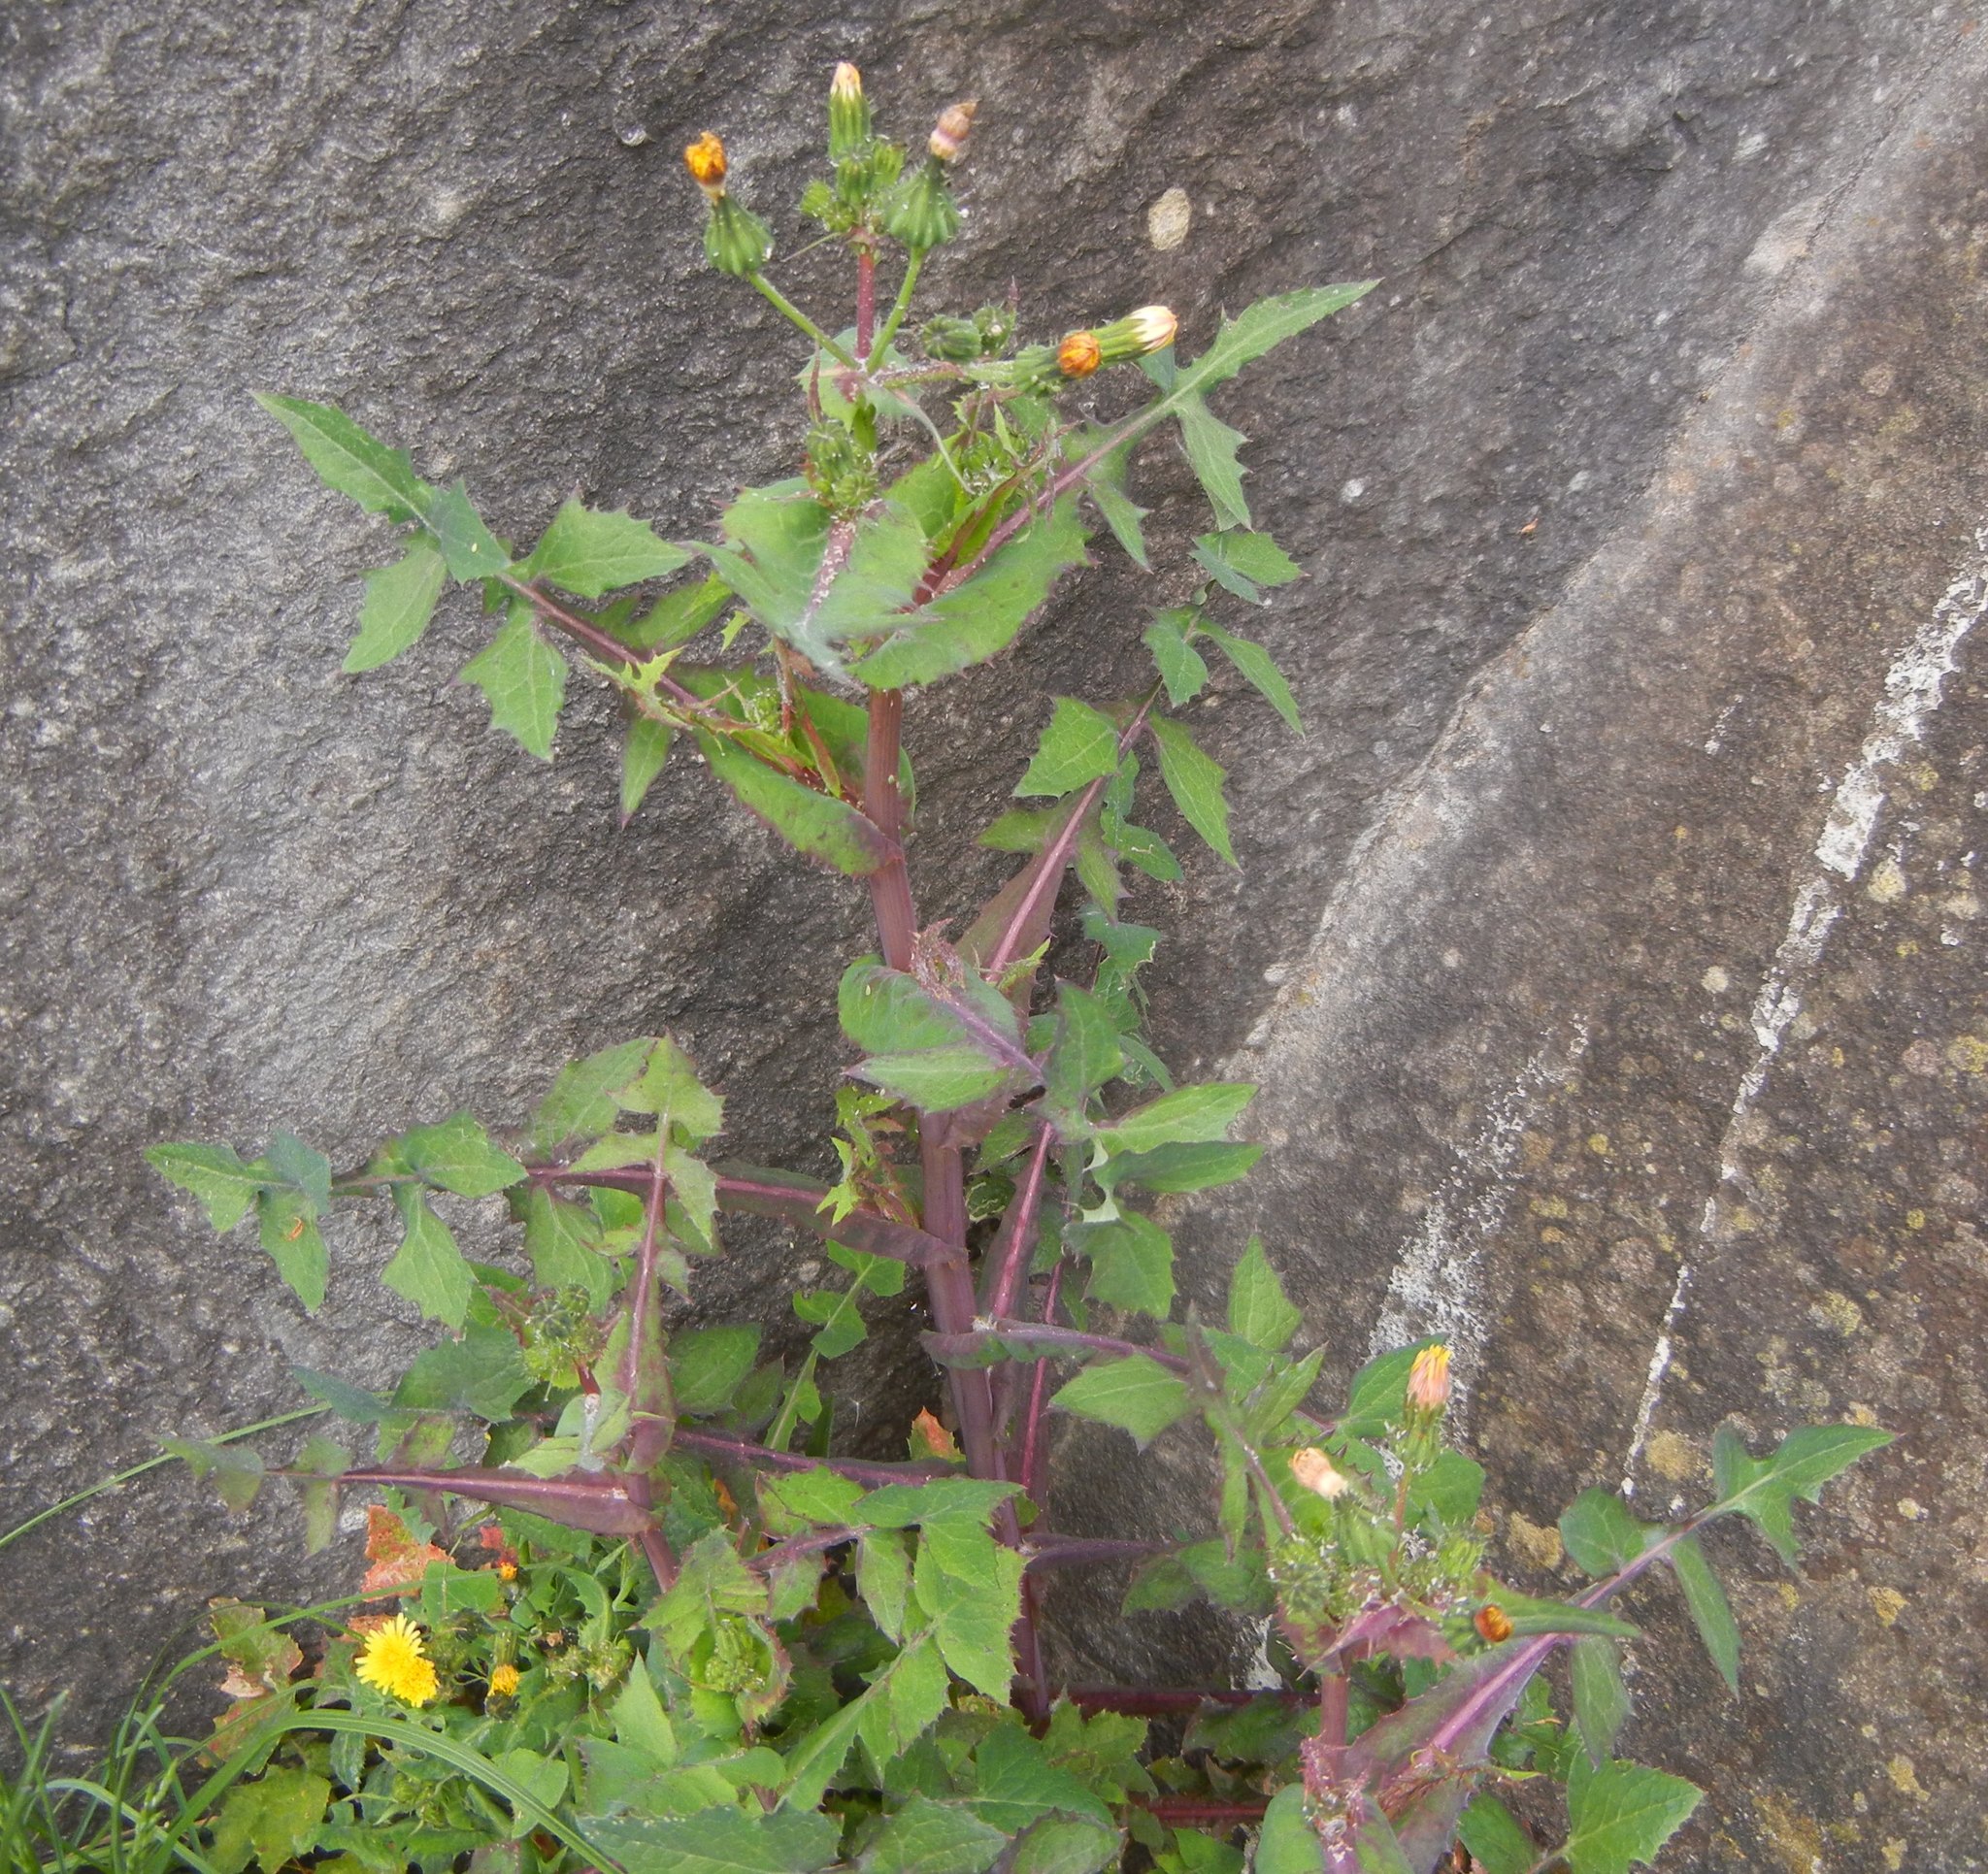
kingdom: Plantae
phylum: Tracheophyta
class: Magnoliopsida
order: Asterales
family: Asteraceae
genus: Sonchus
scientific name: Sonchus oleraceus
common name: Common sowthistle
